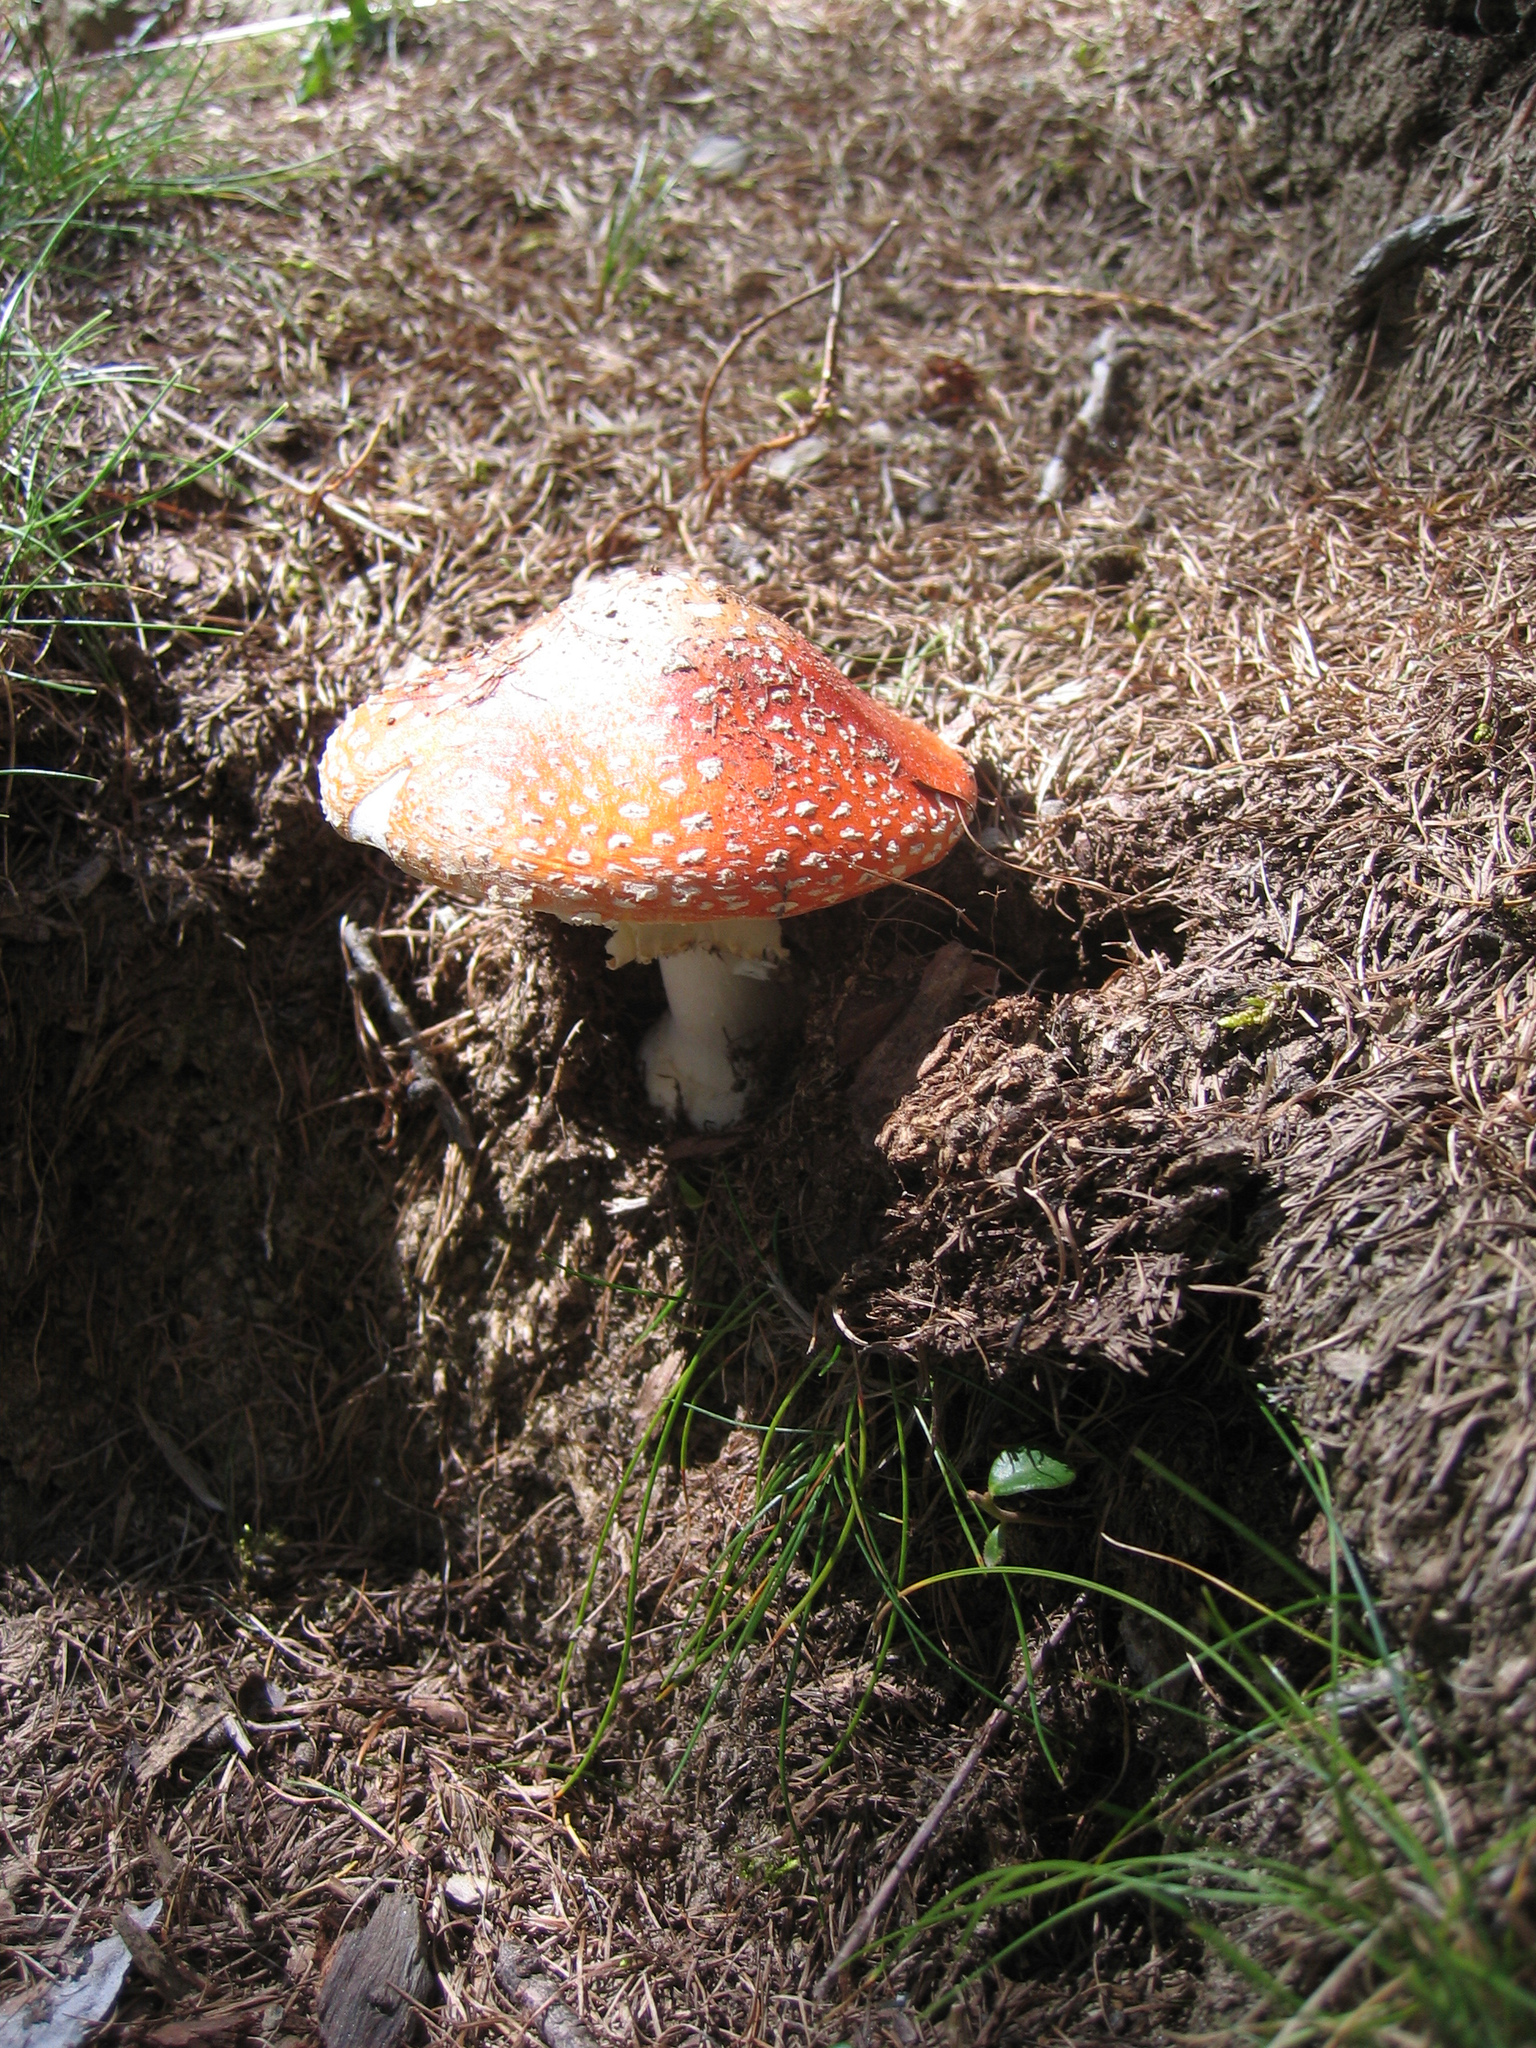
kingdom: Fungi
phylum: Basidiomycota
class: Agaricomycetes
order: Agaricales
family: Amanitaceae
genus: Amanita
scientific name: Amanita muscaria
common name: Fly agaric
